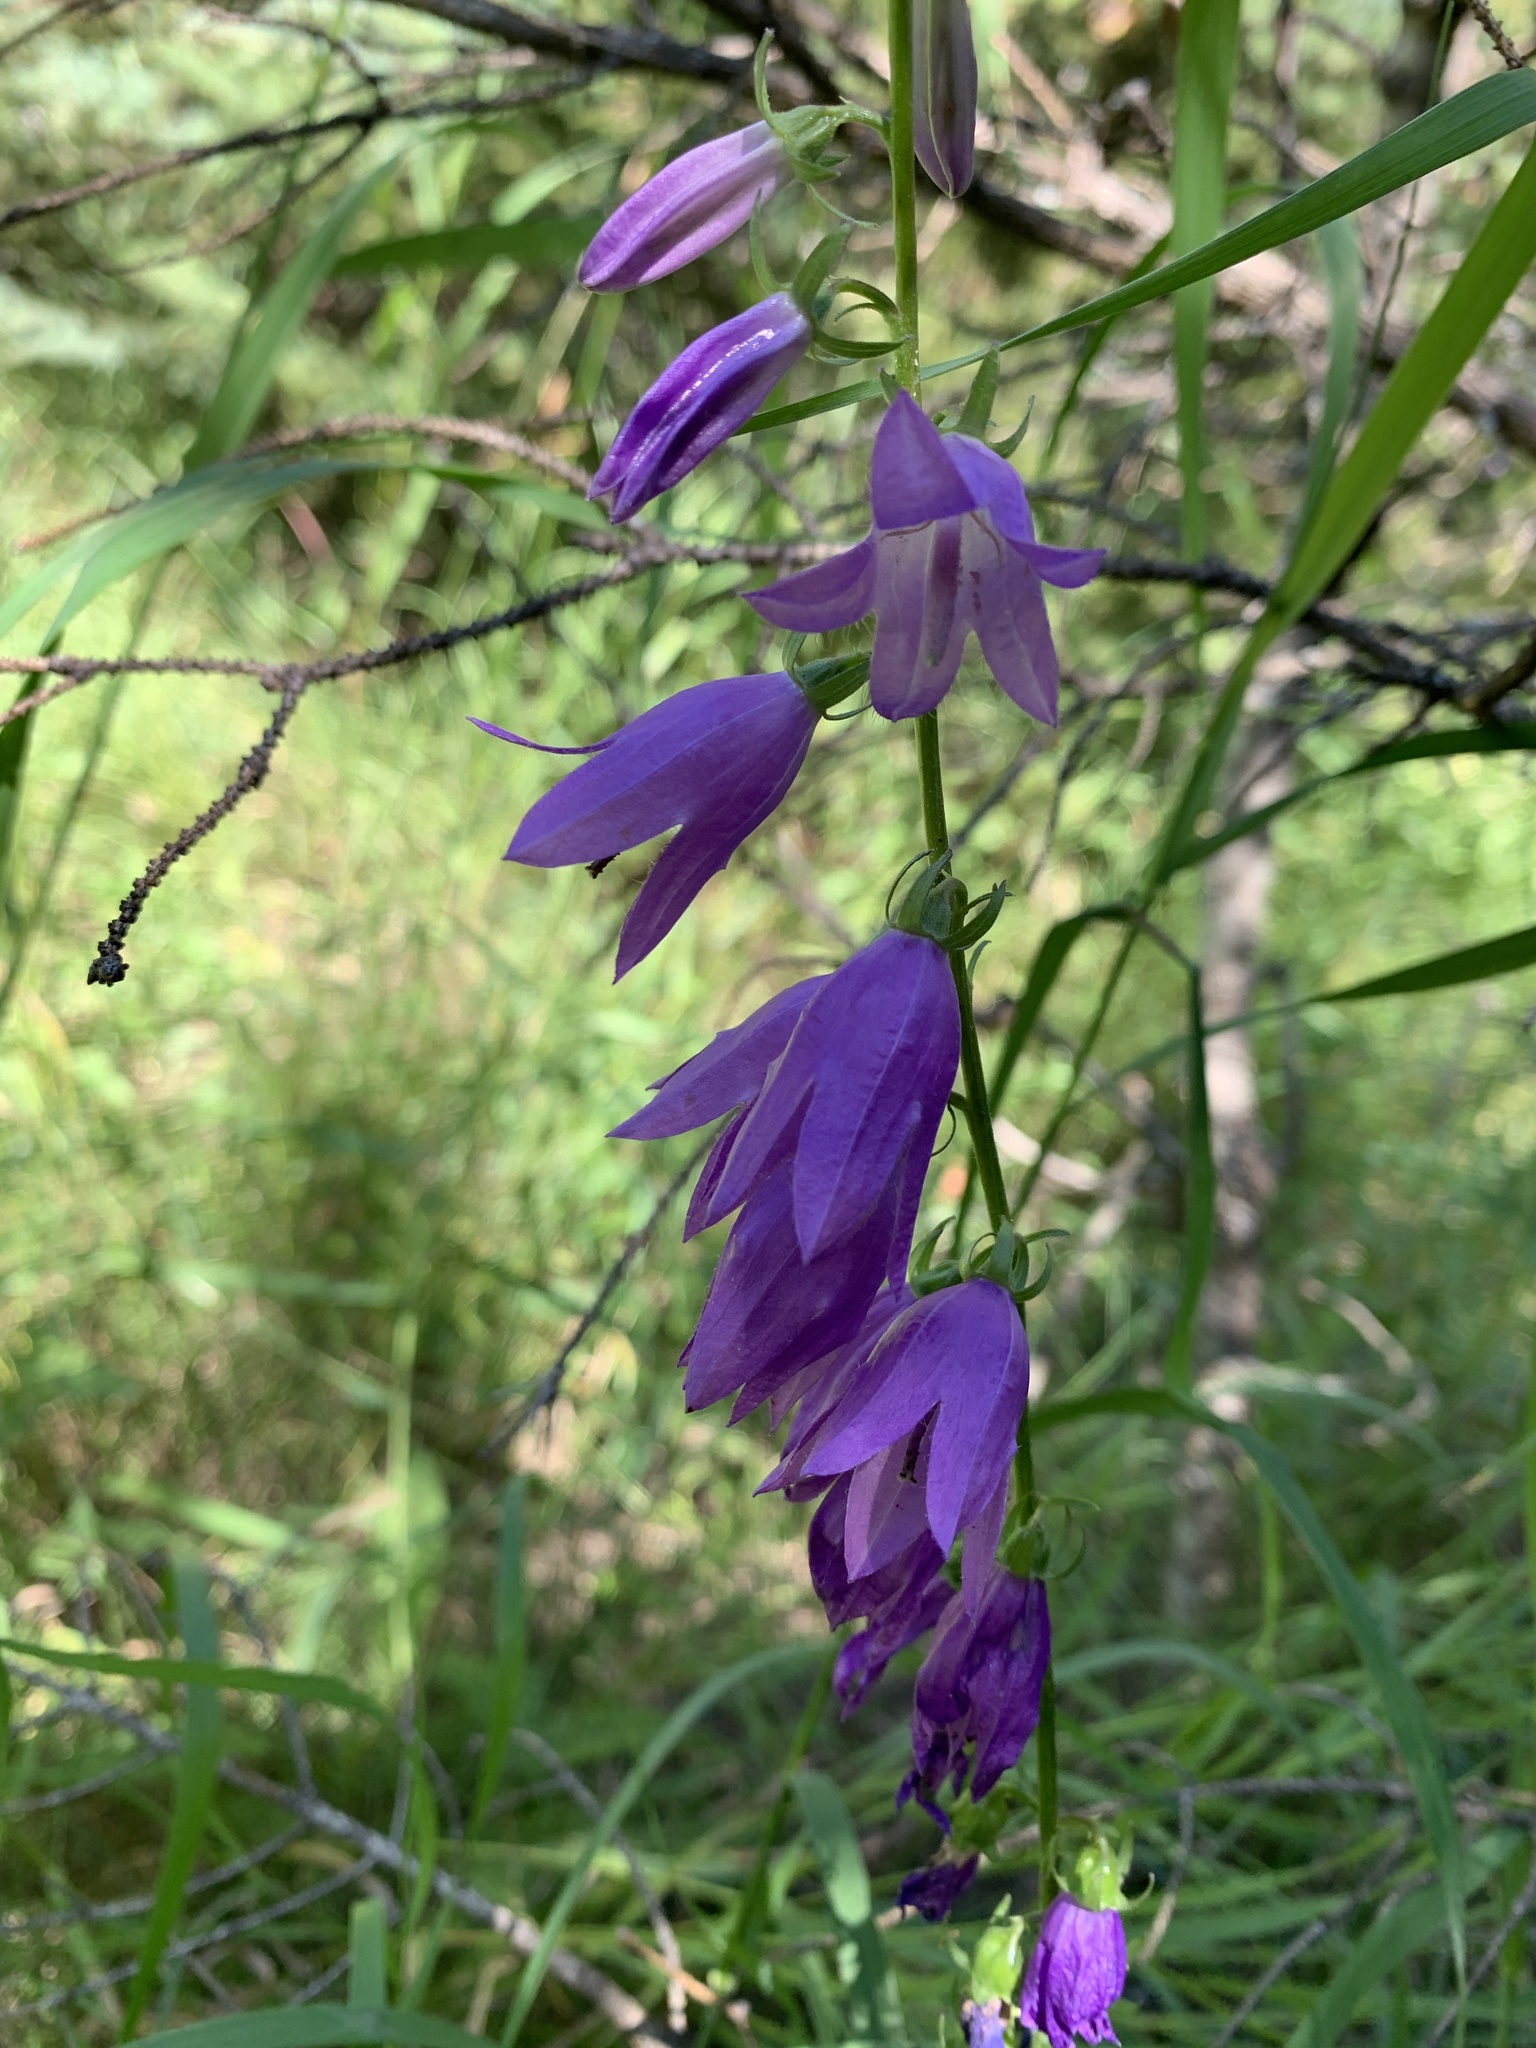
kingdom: Plantae
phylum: Tracheophyta
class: Magnoliopsida
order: Asterales
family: Campanulaceae
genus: Campanula
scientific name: Campanula rapunculoides
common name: Creeping bellflower
